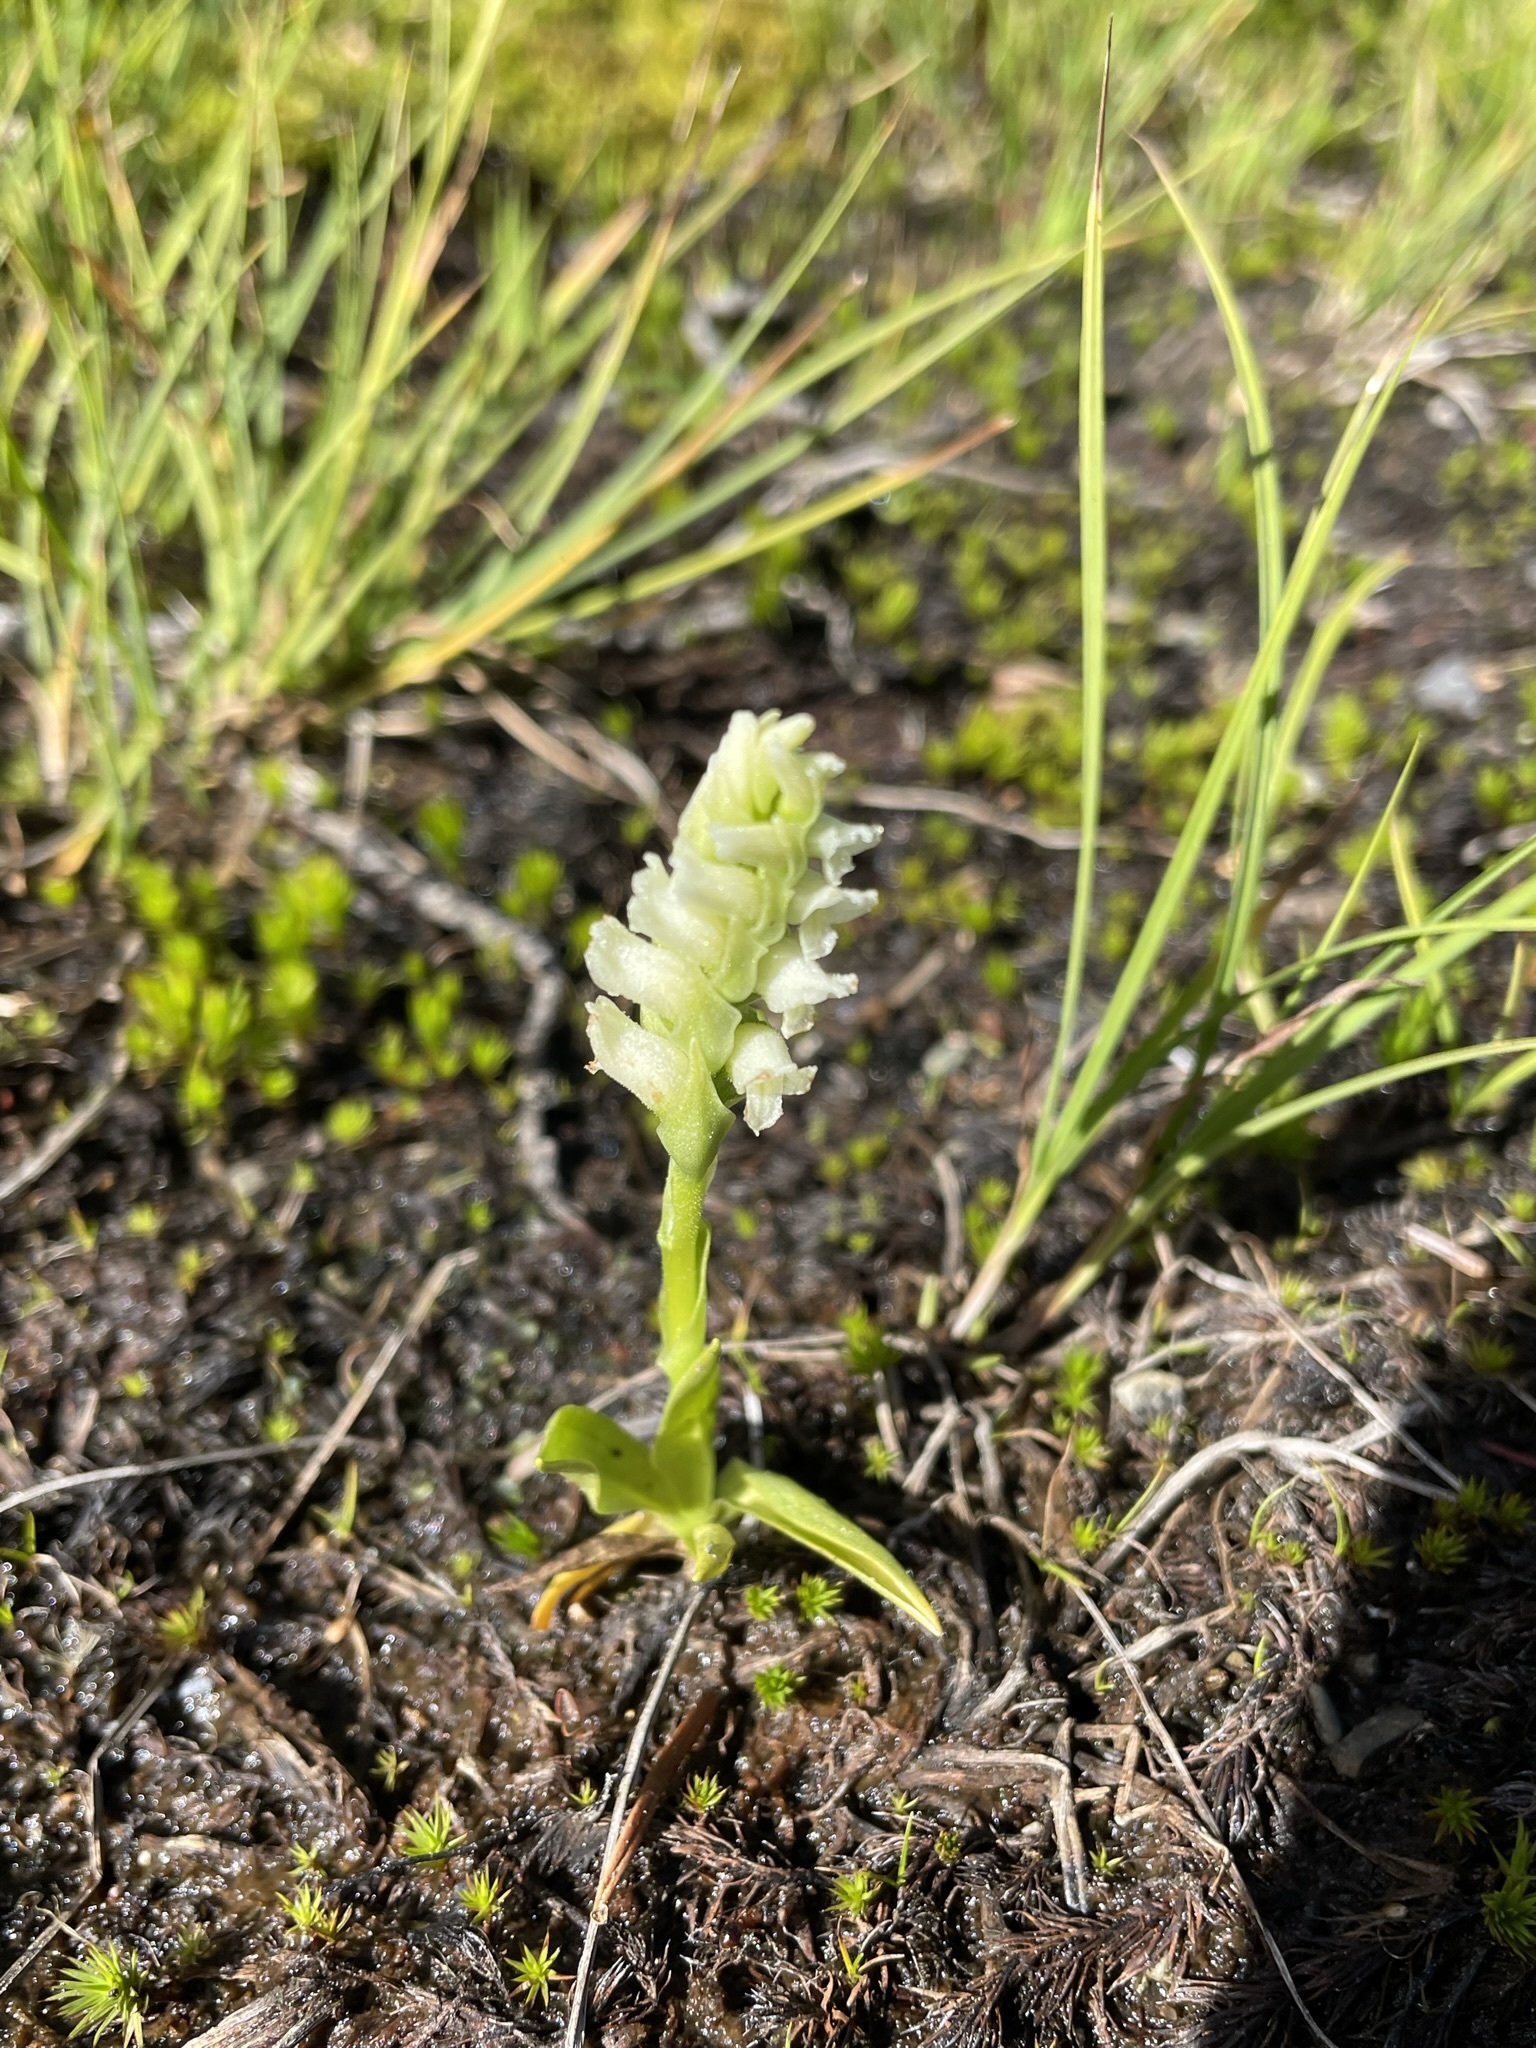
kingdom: Plantae
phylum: Tracheophyta
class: Liliopsida
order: Asparagales
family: Orchidaceae
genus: Spiranthes
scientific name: Spiranthes romanzoffiana
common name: Irish lady's-tresses
